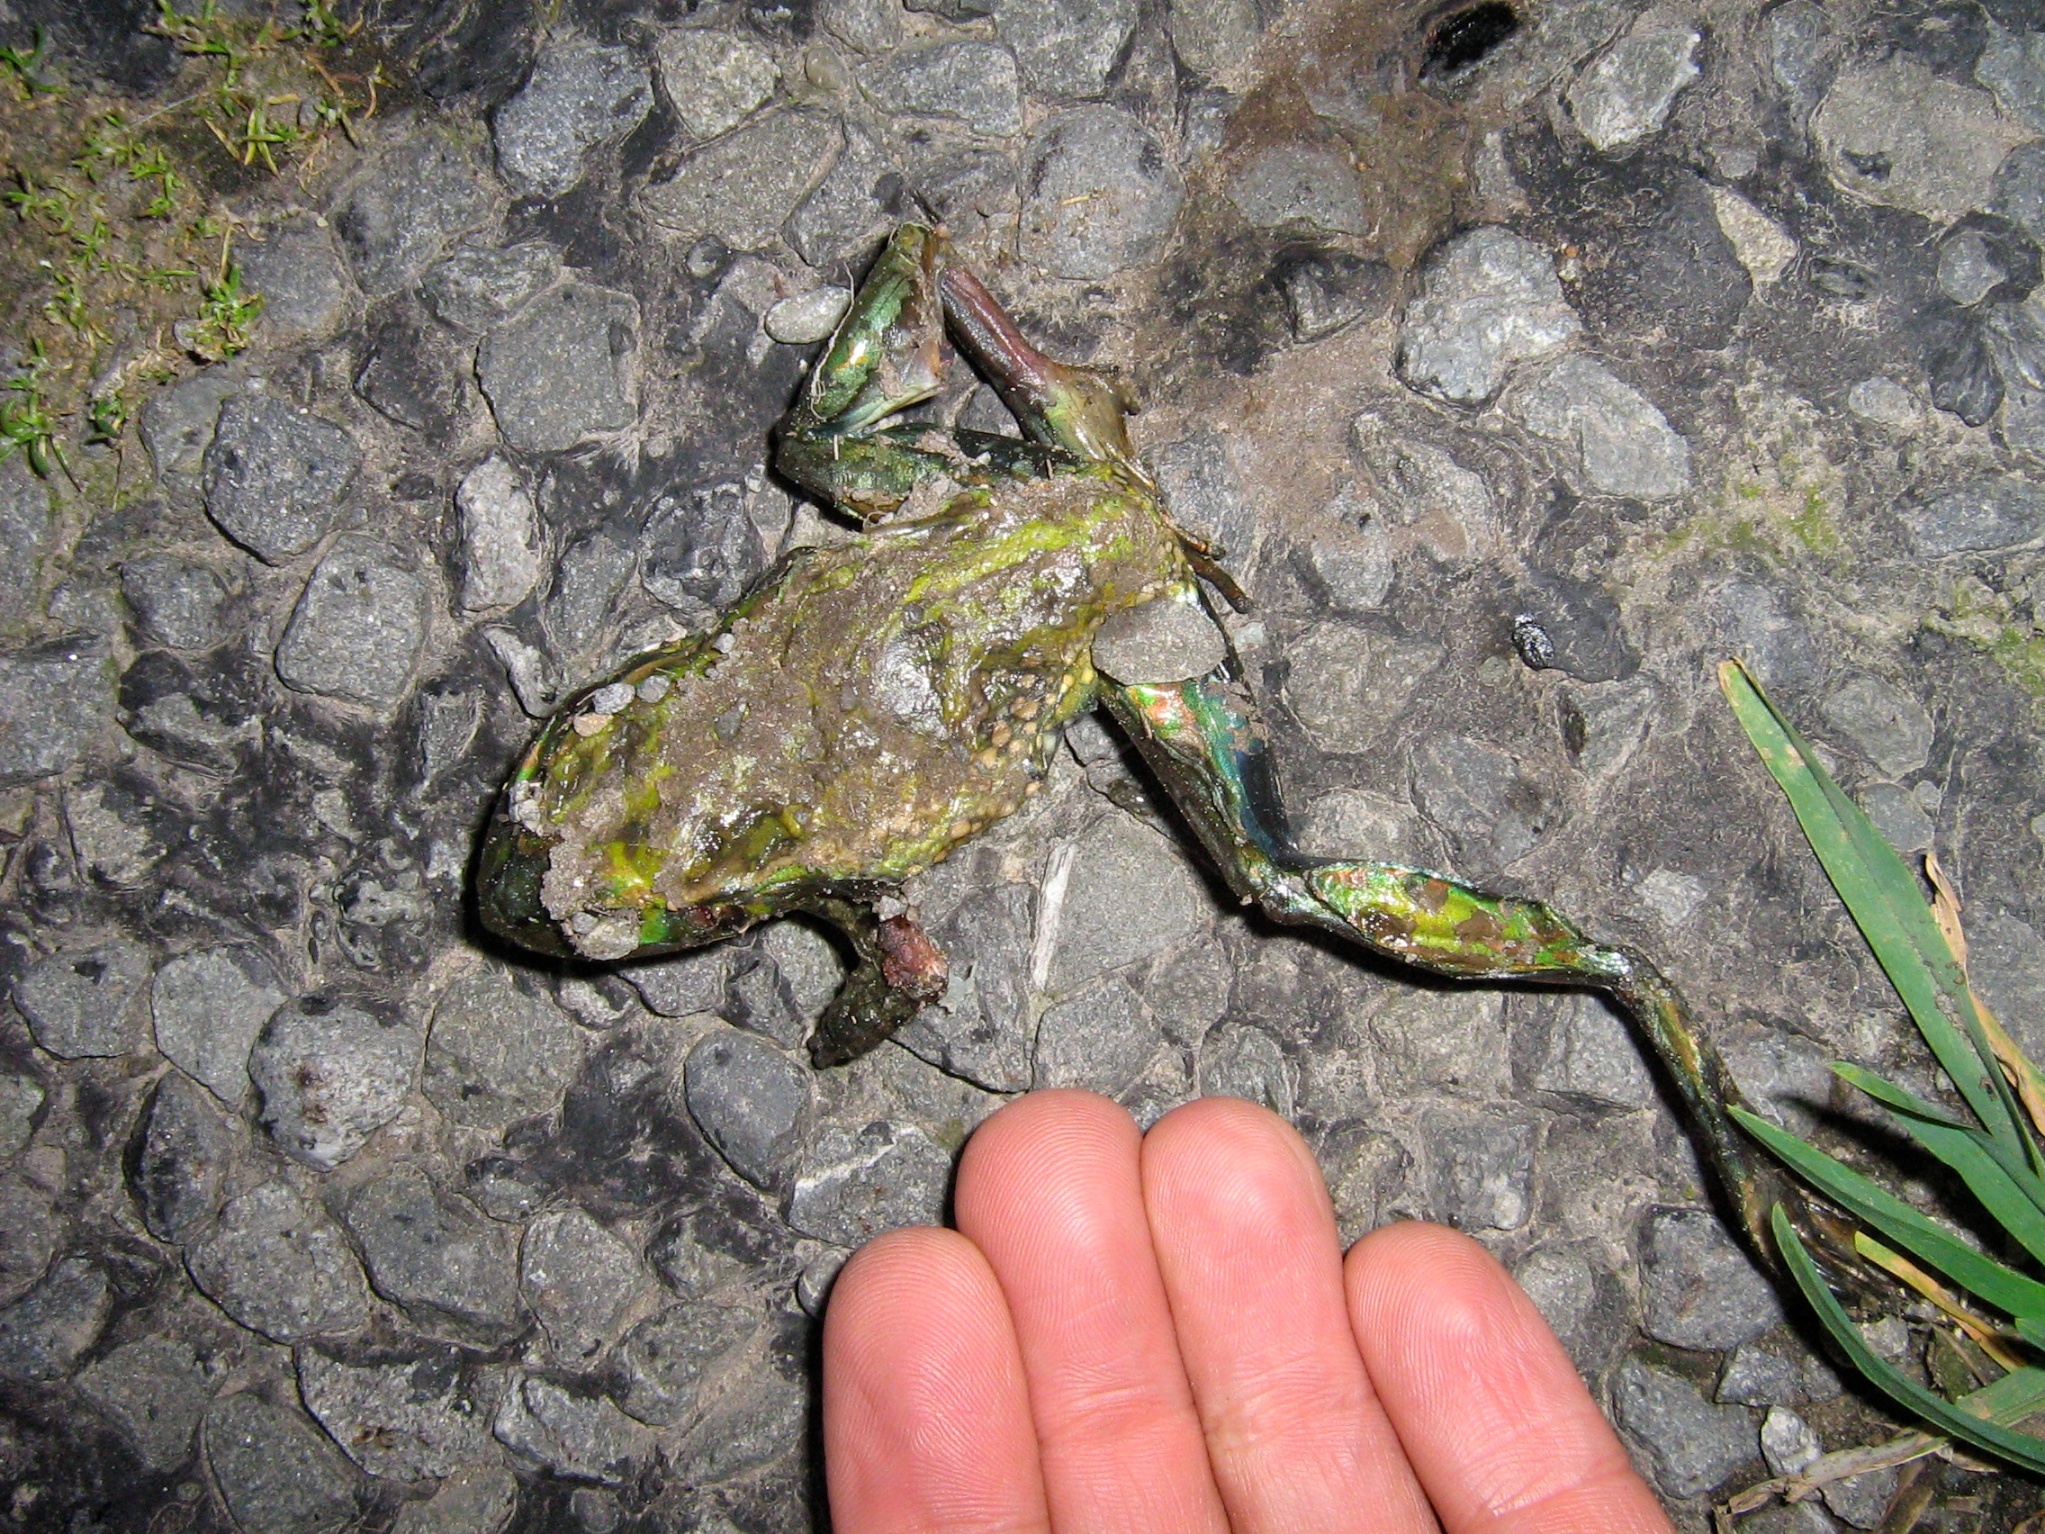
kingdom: Animalia
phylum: Chordata
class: Amphibia
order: Anura
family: Pelodryadidae
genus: Ranoidea
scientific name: Ranoidea raniformis
